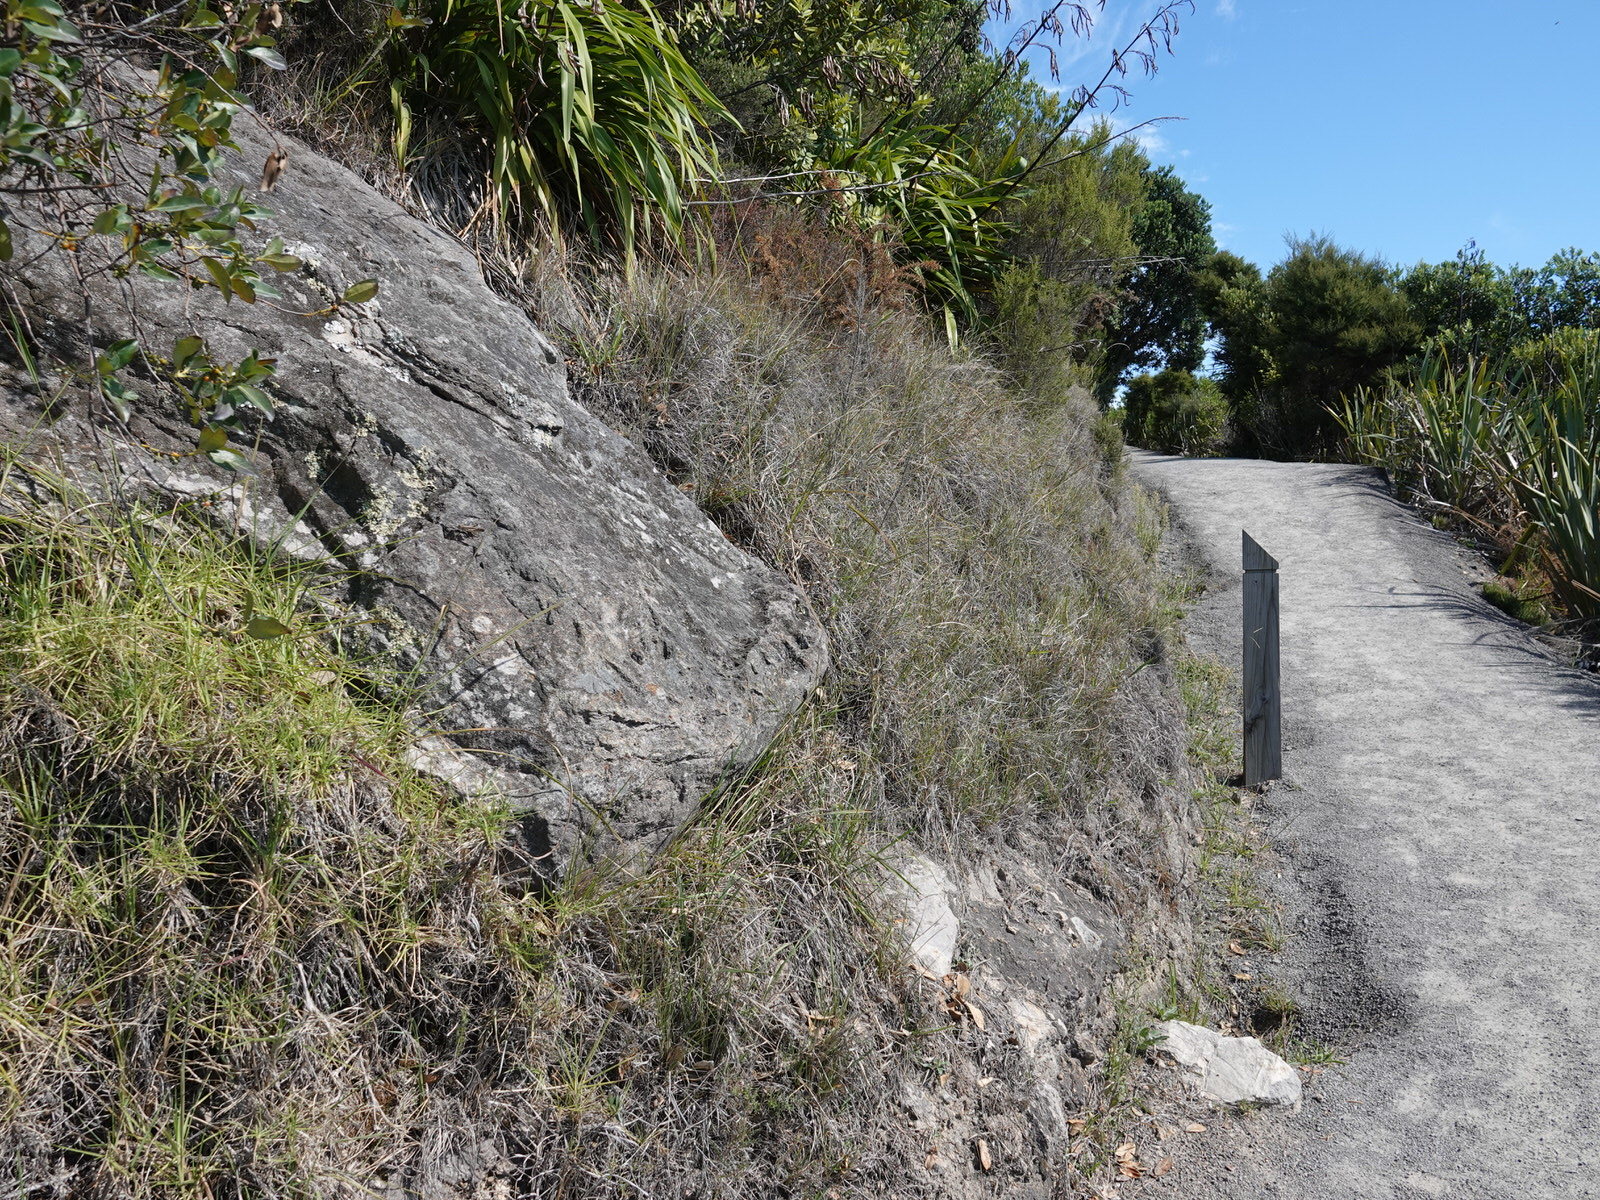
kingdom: Animalia
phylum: Arthropoda
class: Insecta
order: Orthoptera
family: Acrididae
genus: Locusta
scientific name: Locusta migratoria
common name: Migratory locust
